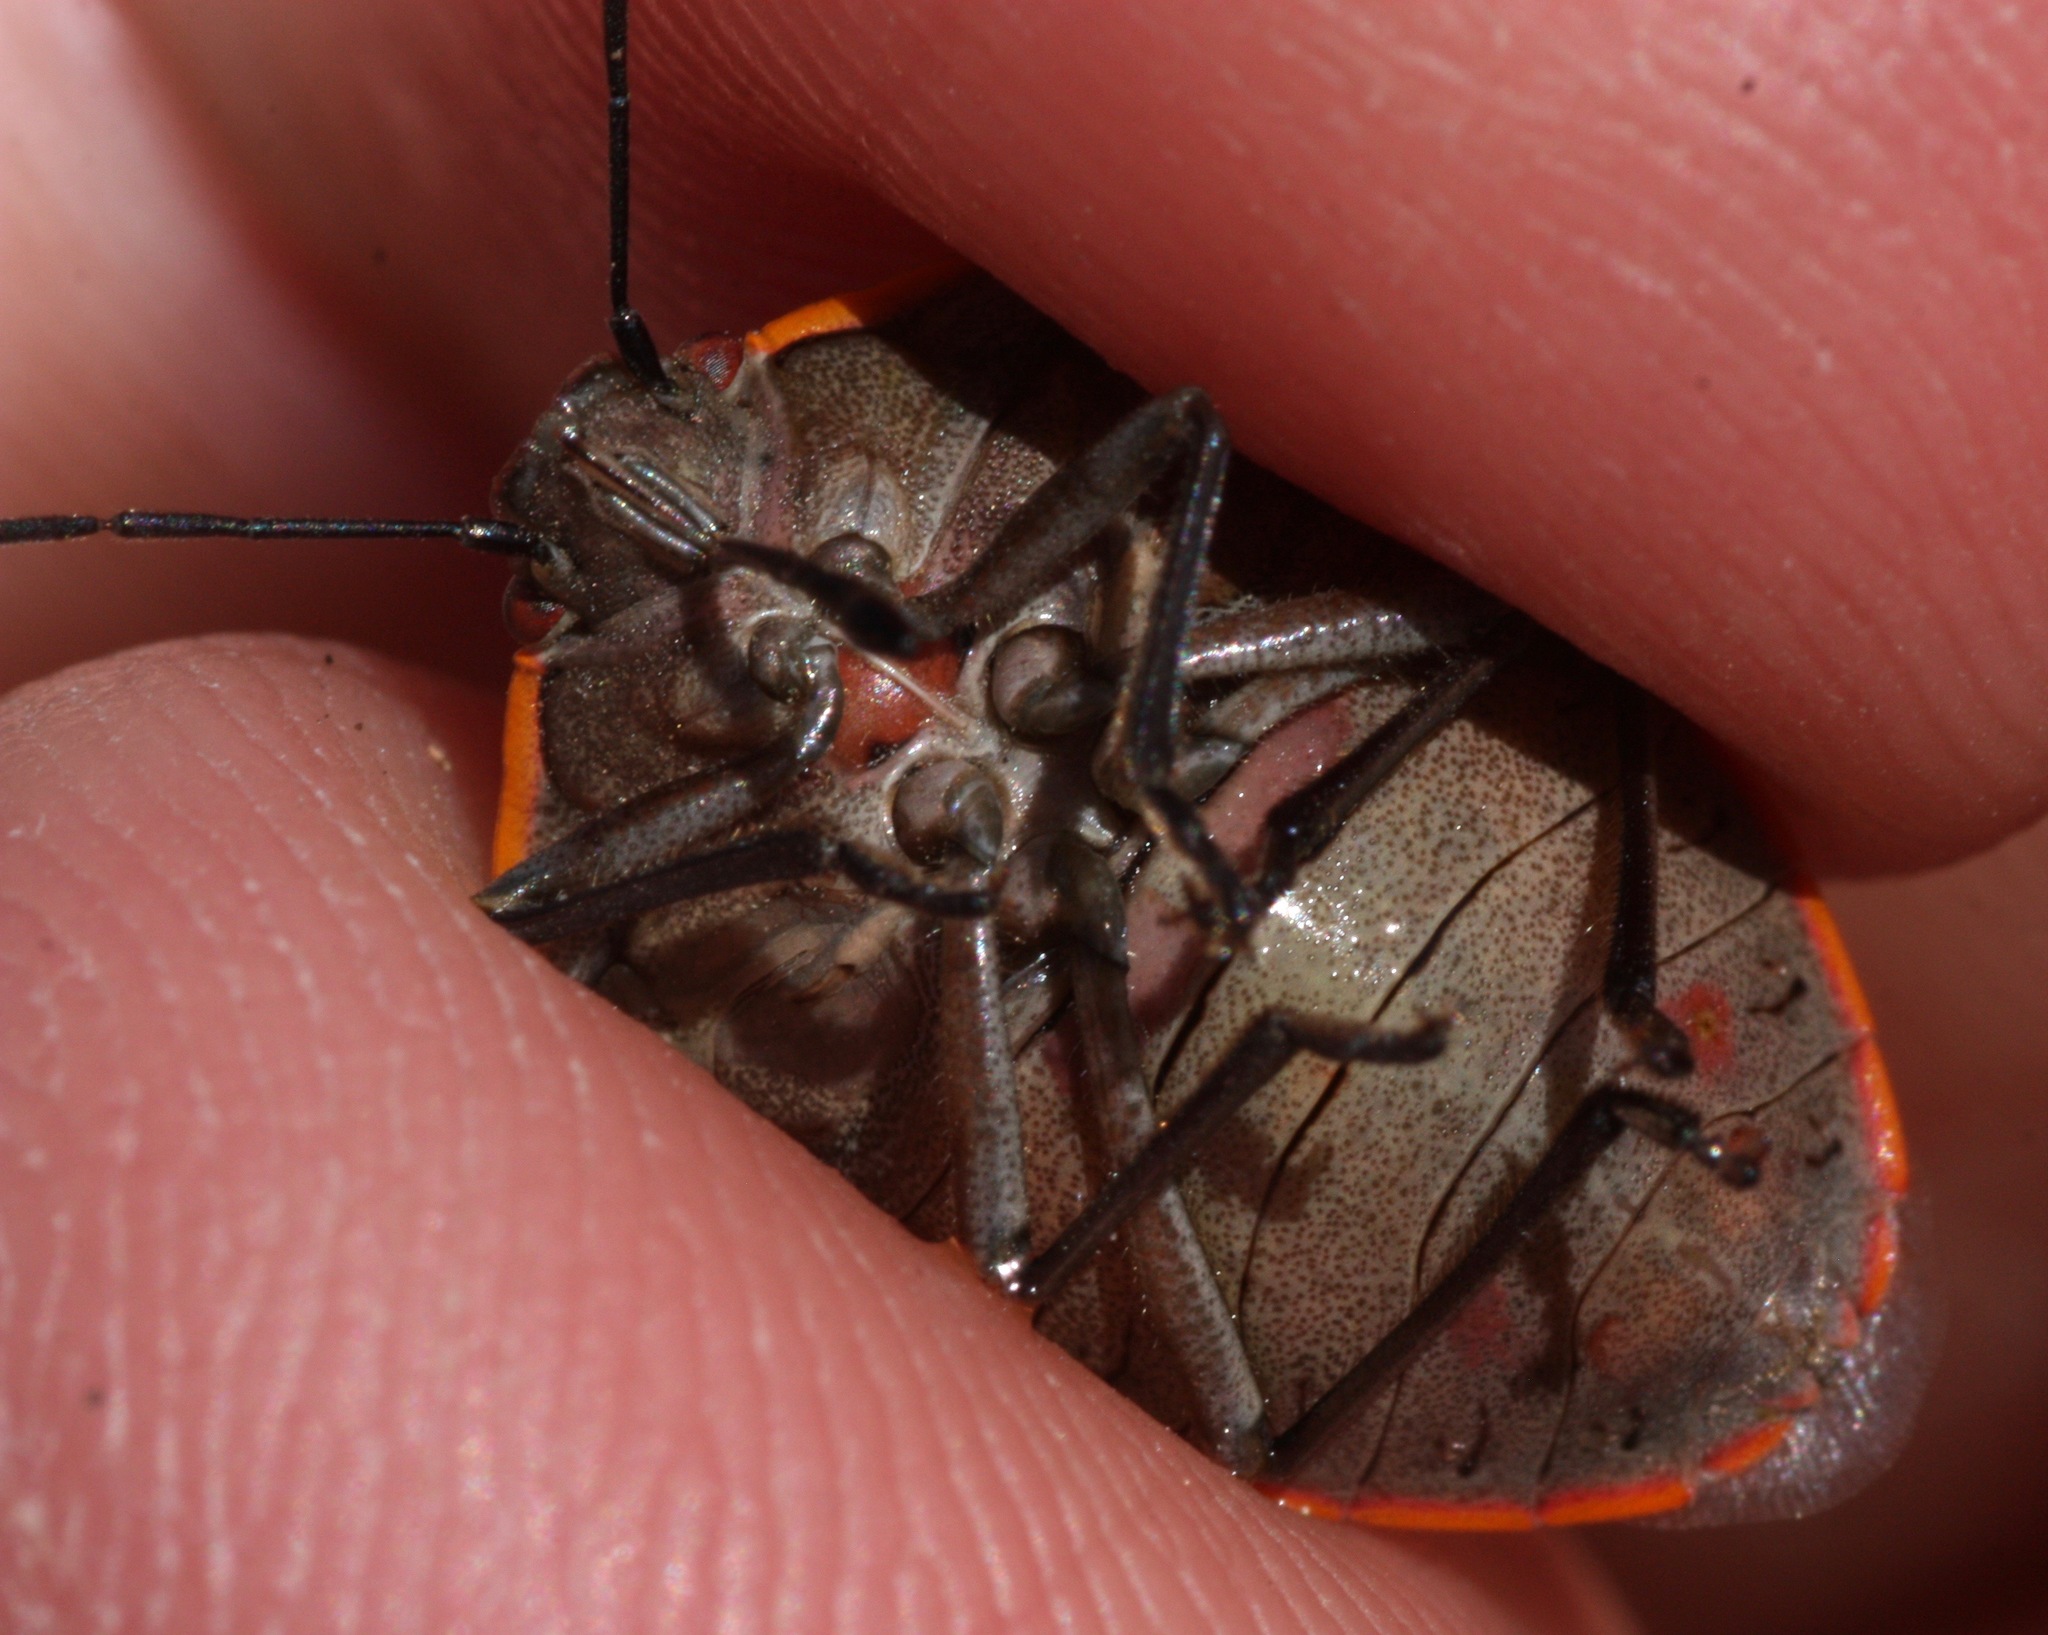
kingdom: Animalia
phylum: Arthropoda
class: Insecta
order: Hemiptera
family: Pentatomidae
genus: Chlorochroa
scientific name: Chlorochroa ligata
